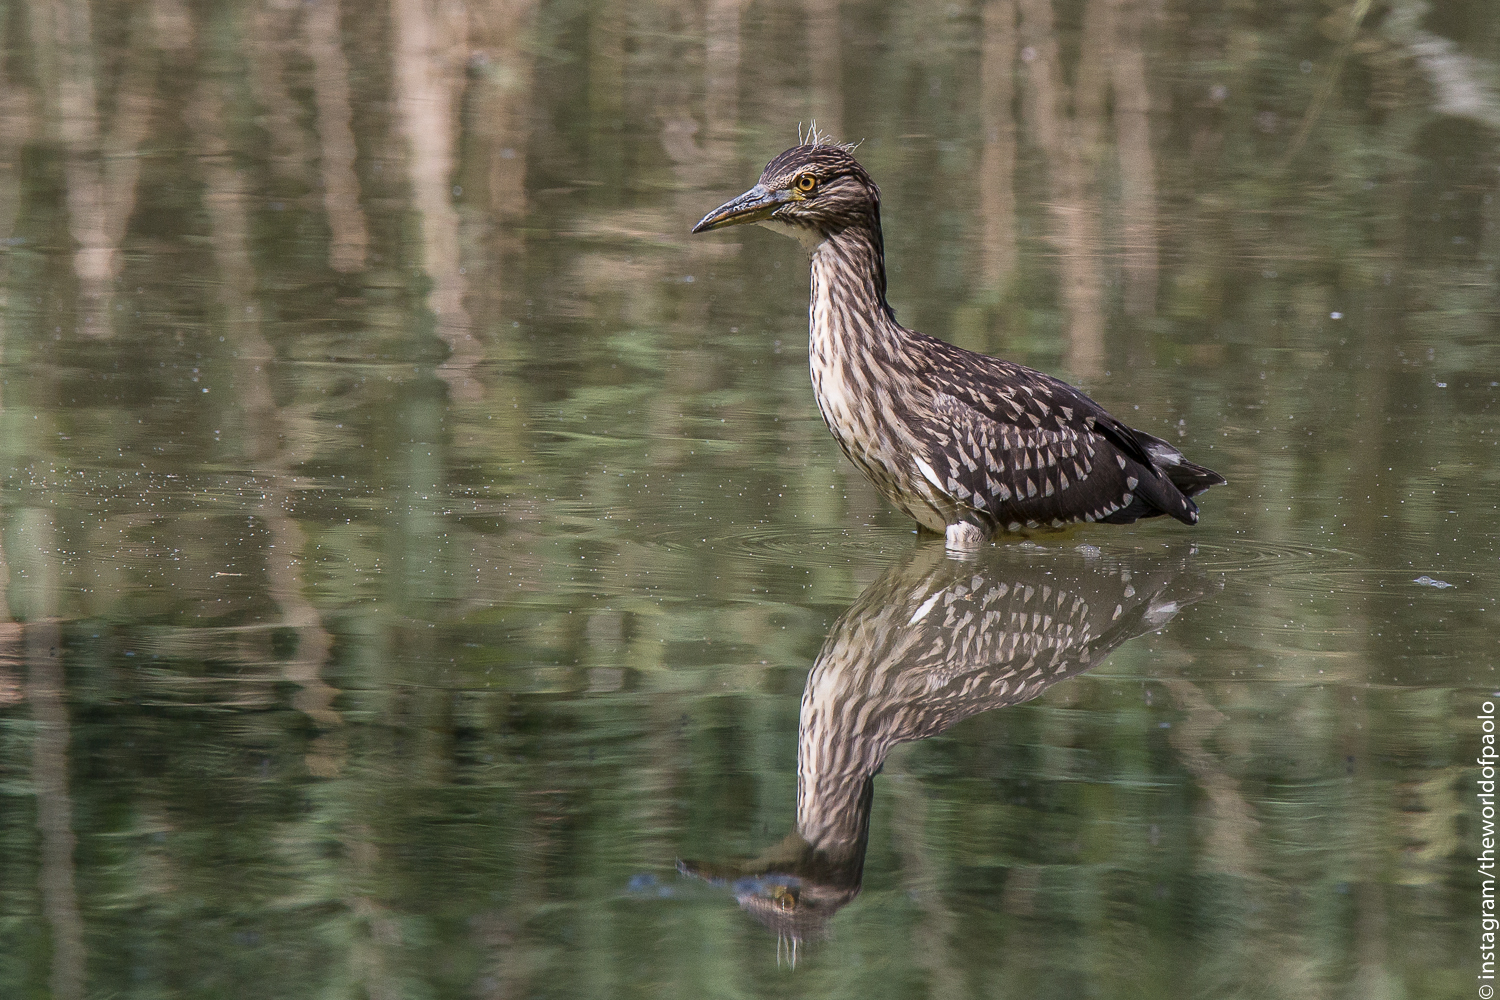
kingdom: Animalia
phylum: Chordata
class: Aves
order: Pelecaniformes
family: Ardeidae
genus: Nycticorax
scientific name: Nycticorax nycticorax
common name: Black-crowned night heron
